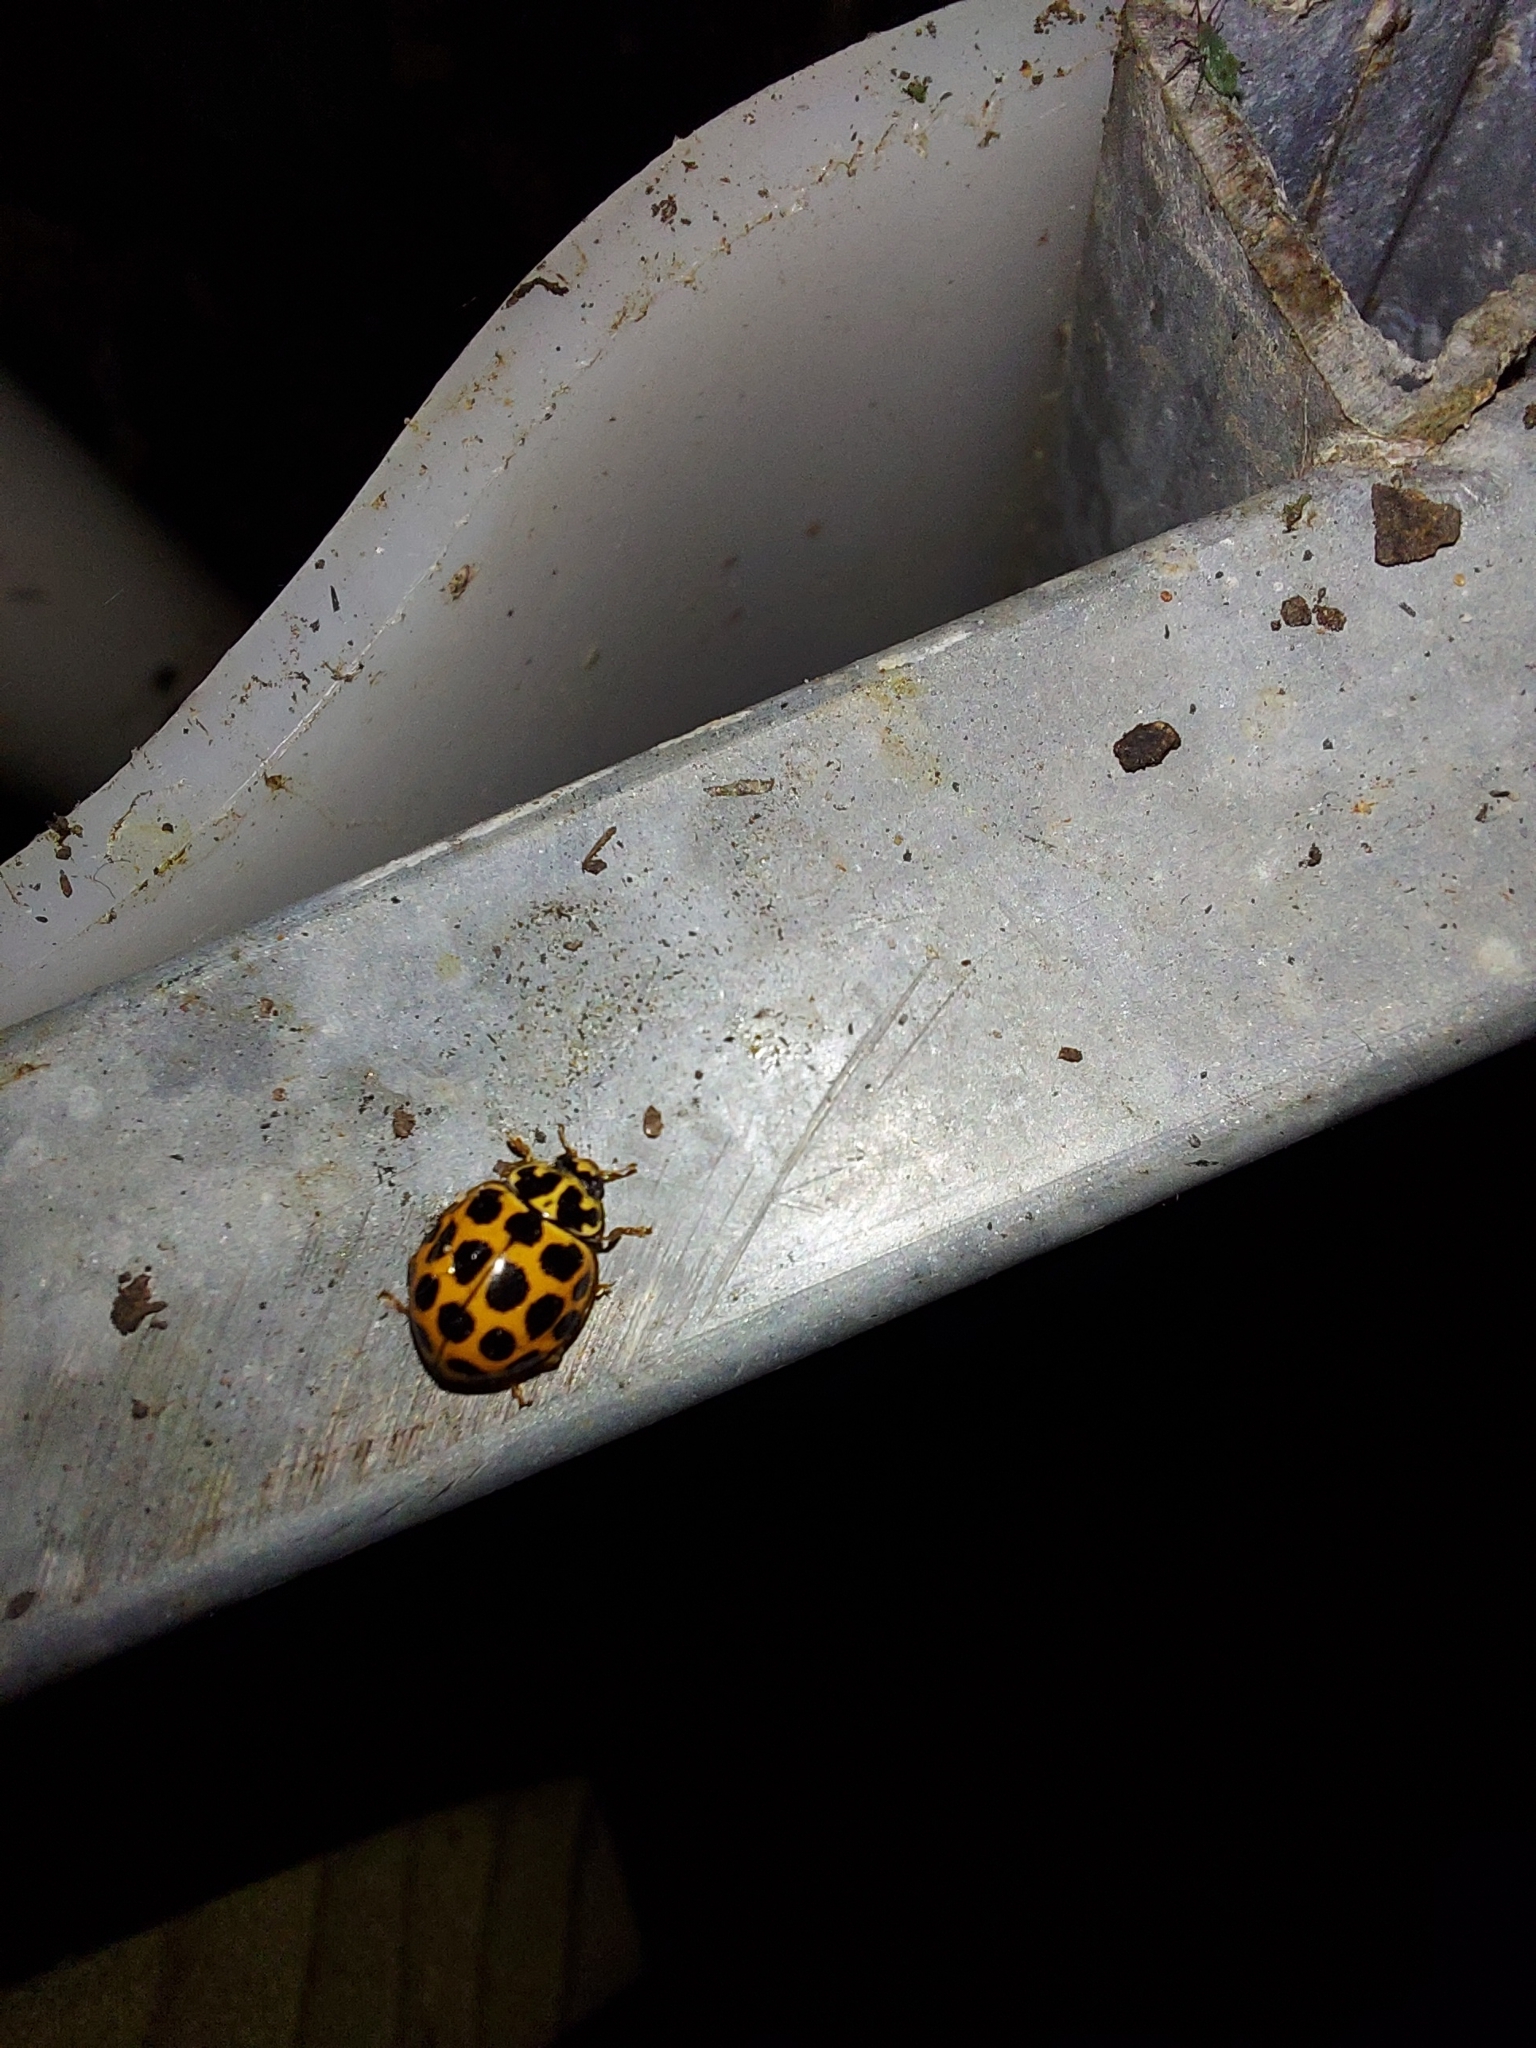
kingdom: Animalia
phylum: Arthropoda
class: Insecta
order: Coleoptera
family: Coccinellidae
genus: Harmonia
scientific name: Harmonia conformis
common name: Common spotted ladybird beetle
